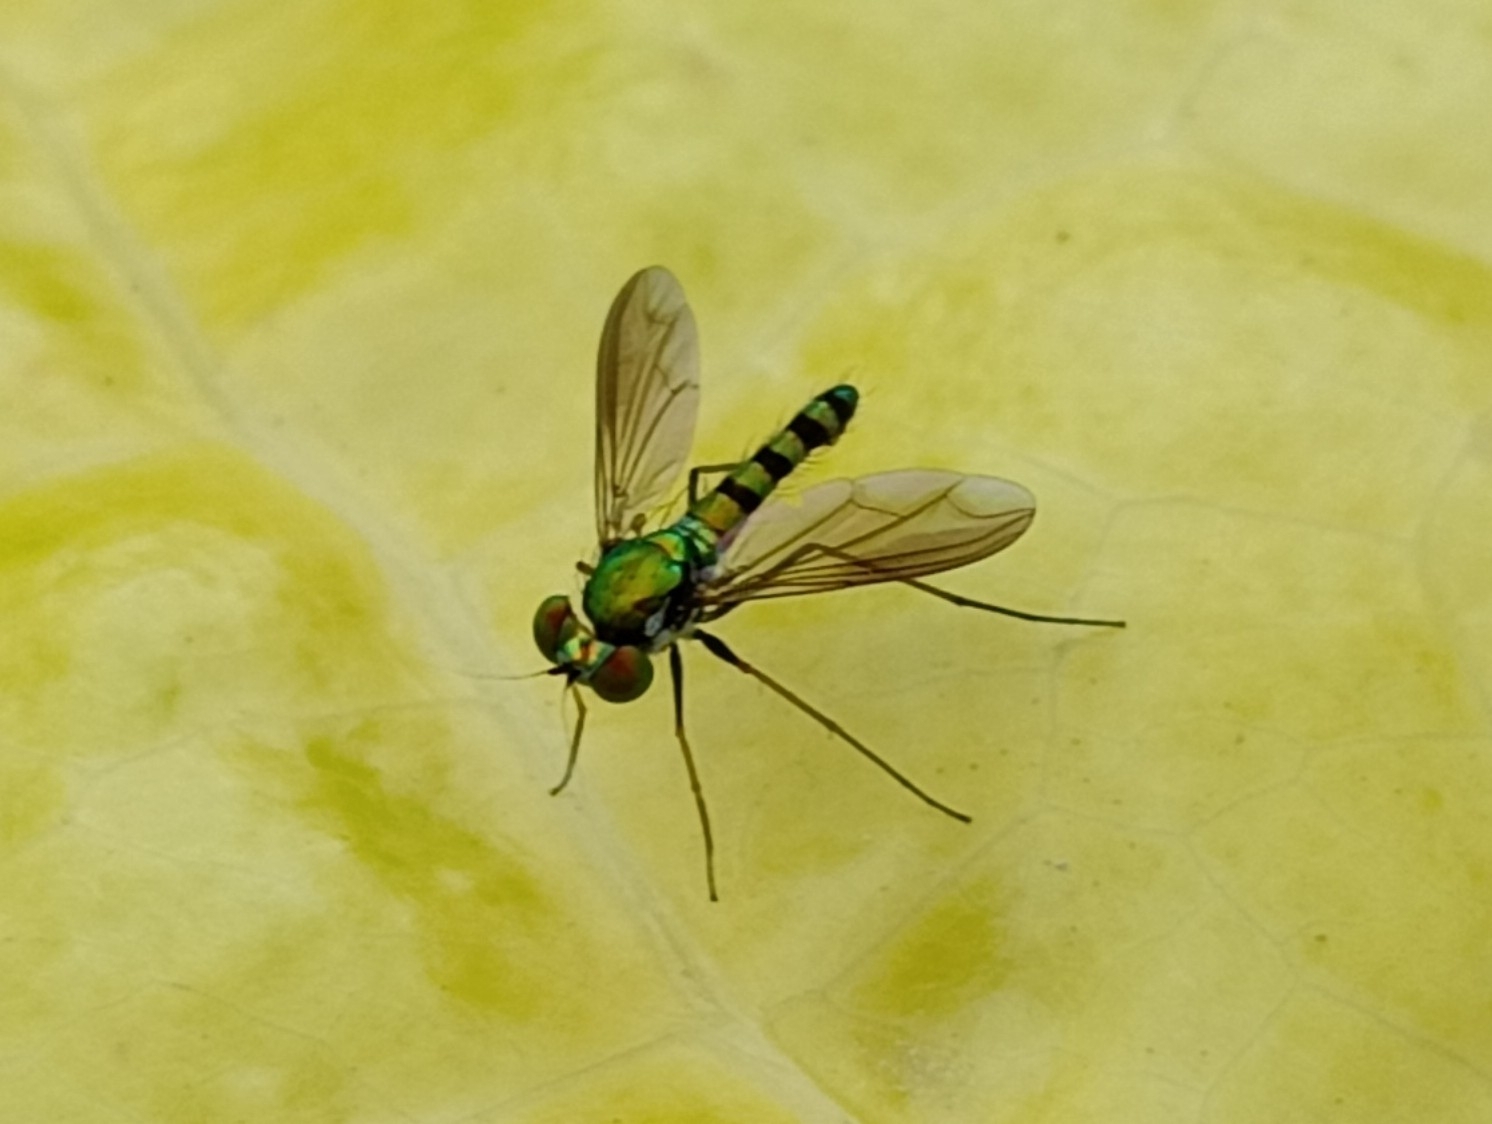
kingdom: Animalia
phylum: Arthropoda
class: Insecta
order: Diptera
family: Dolichopodidae
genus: Krakatauia
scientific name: Krakatauia evulgata
